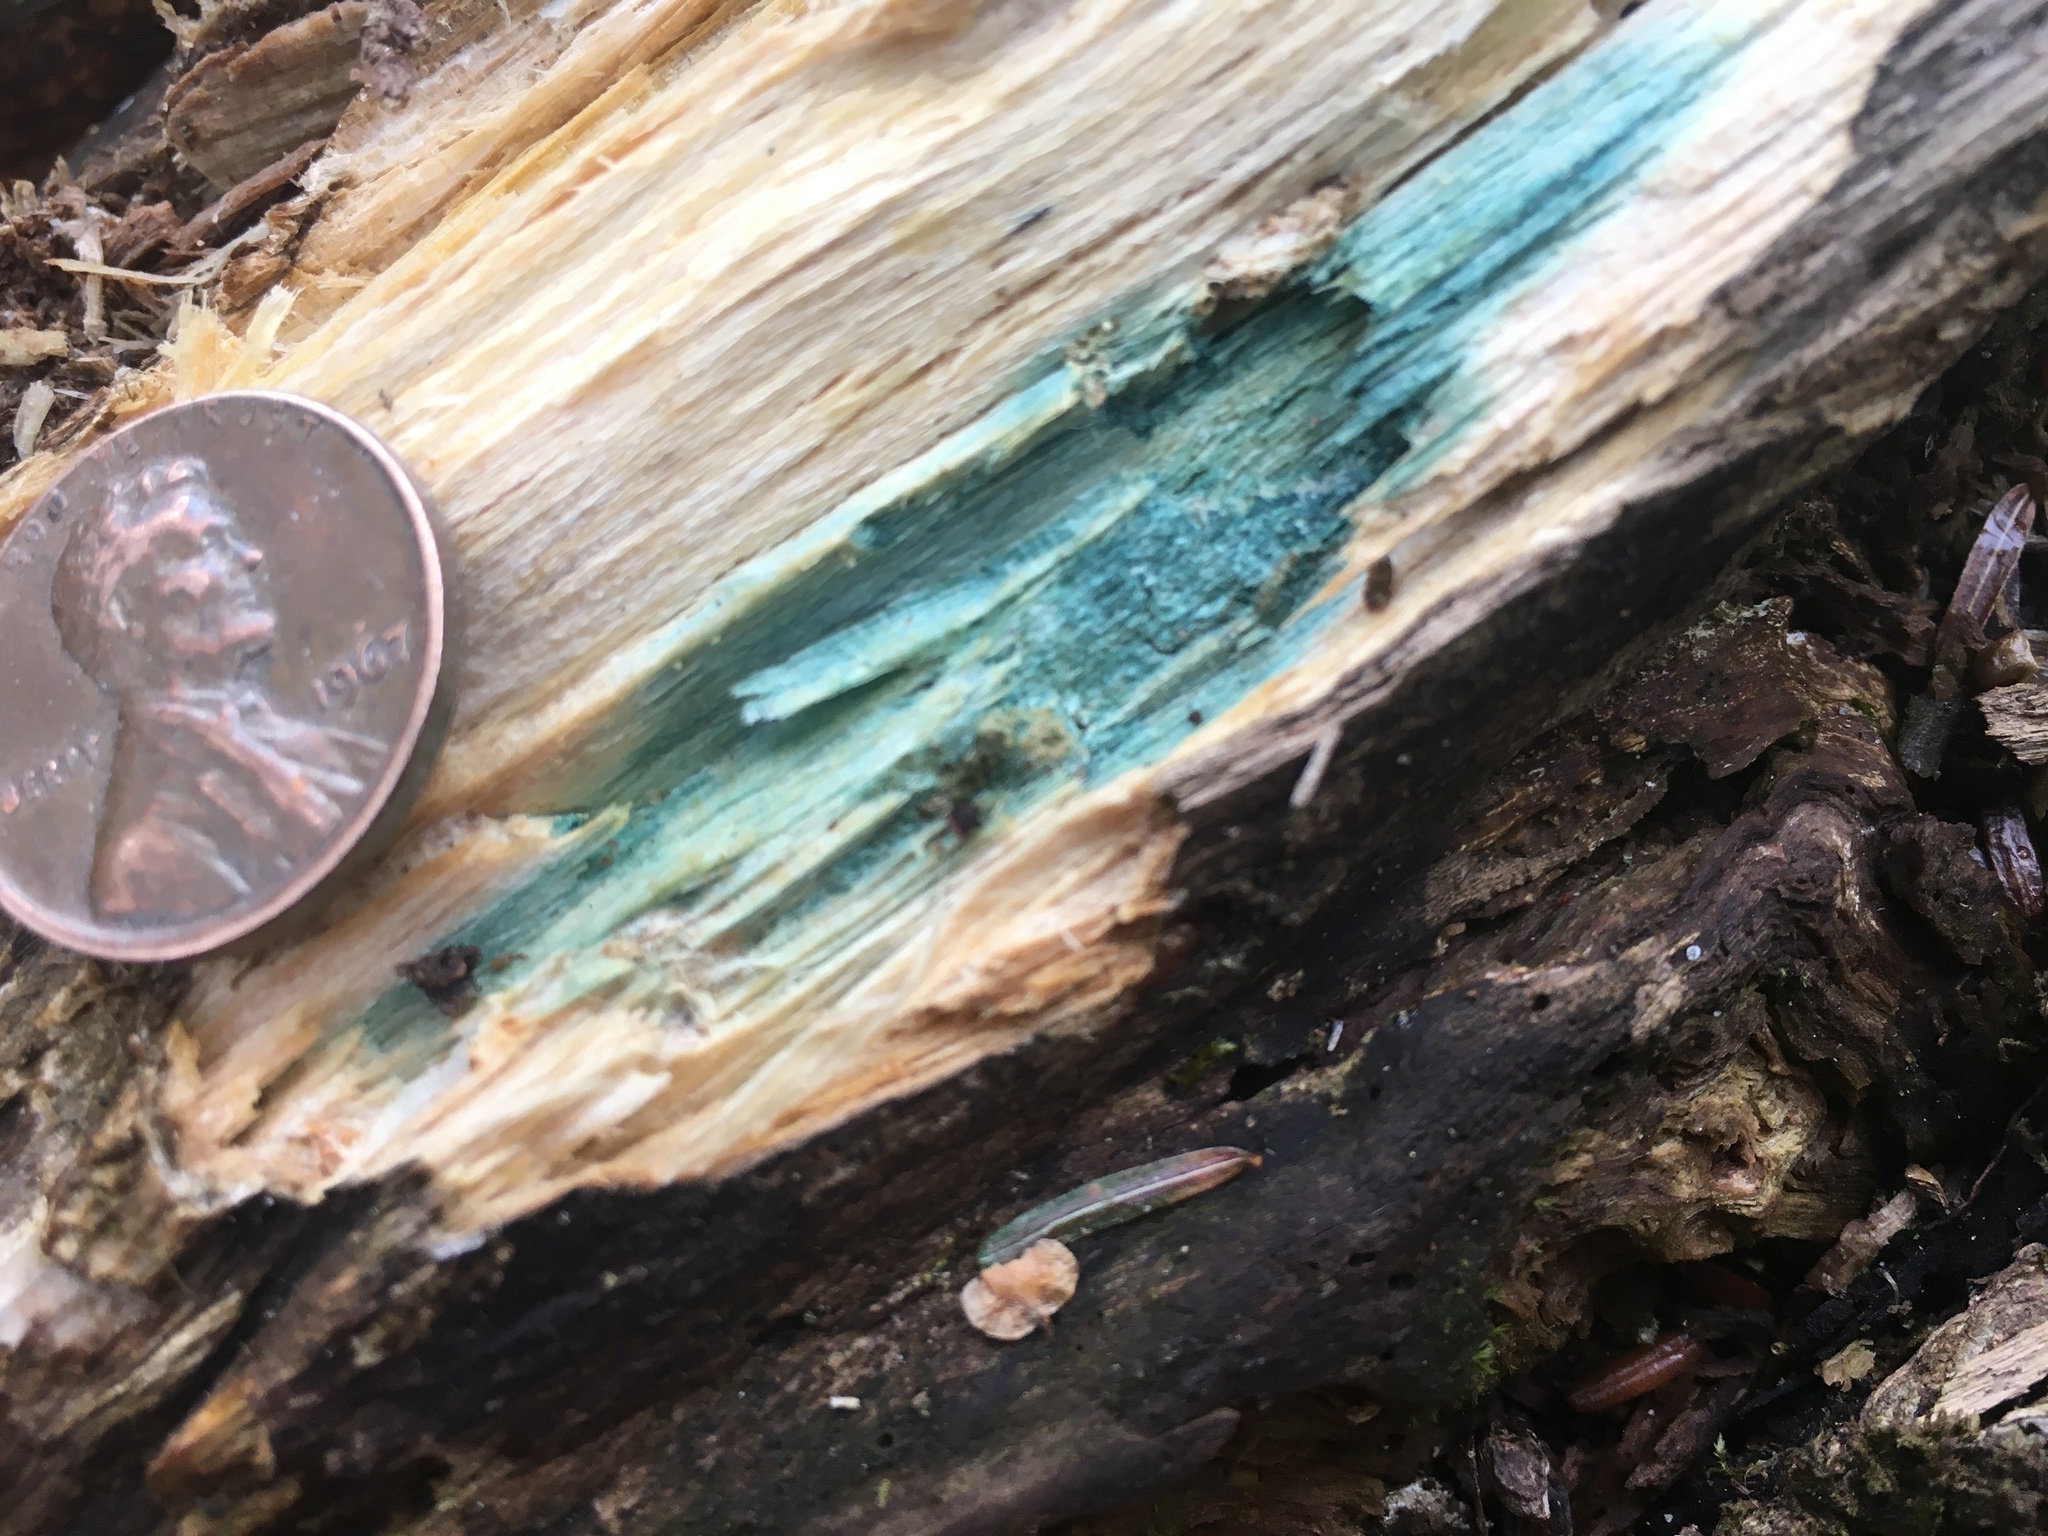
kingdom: Fungi
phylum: Ascomycota
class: Leotiomycetes
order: Helotiales
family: Chlorociboriaceae
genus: Chlorociboria
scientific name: Chlorociboria
